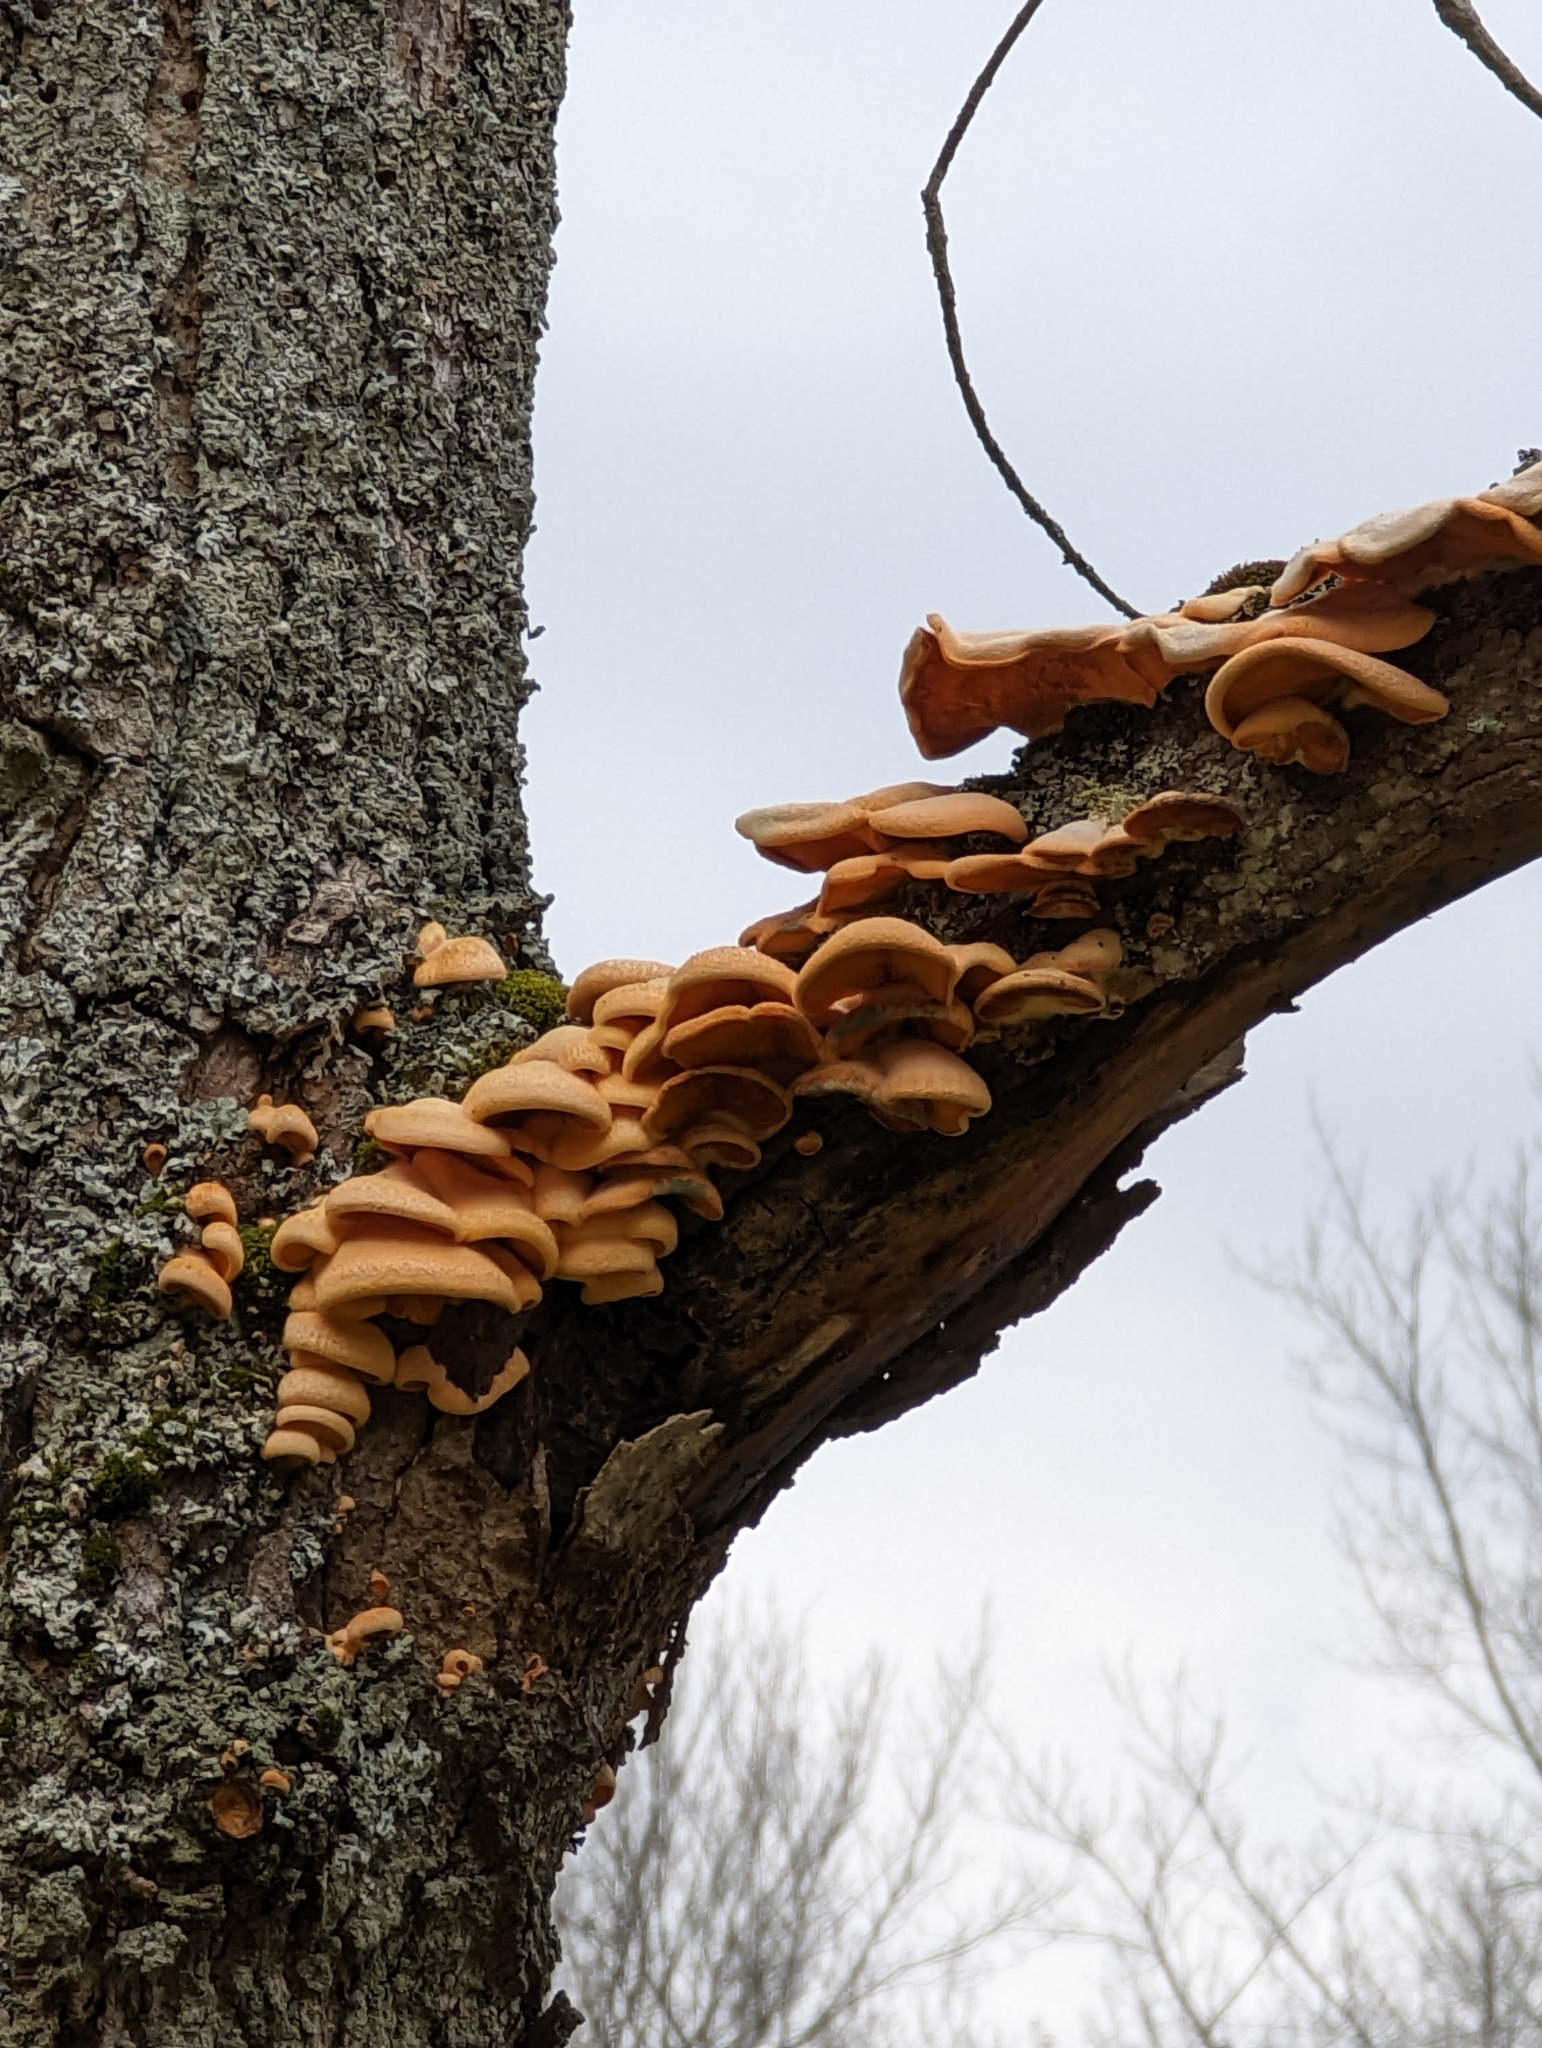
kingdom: Fungi
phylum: Basidiomycota
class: Agaricomycetes
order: Agaricales
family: Phyllotopsidaceae
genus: Phyllotopsis
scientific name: Phyllotopsis nidulans
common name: Orange mock oyster
